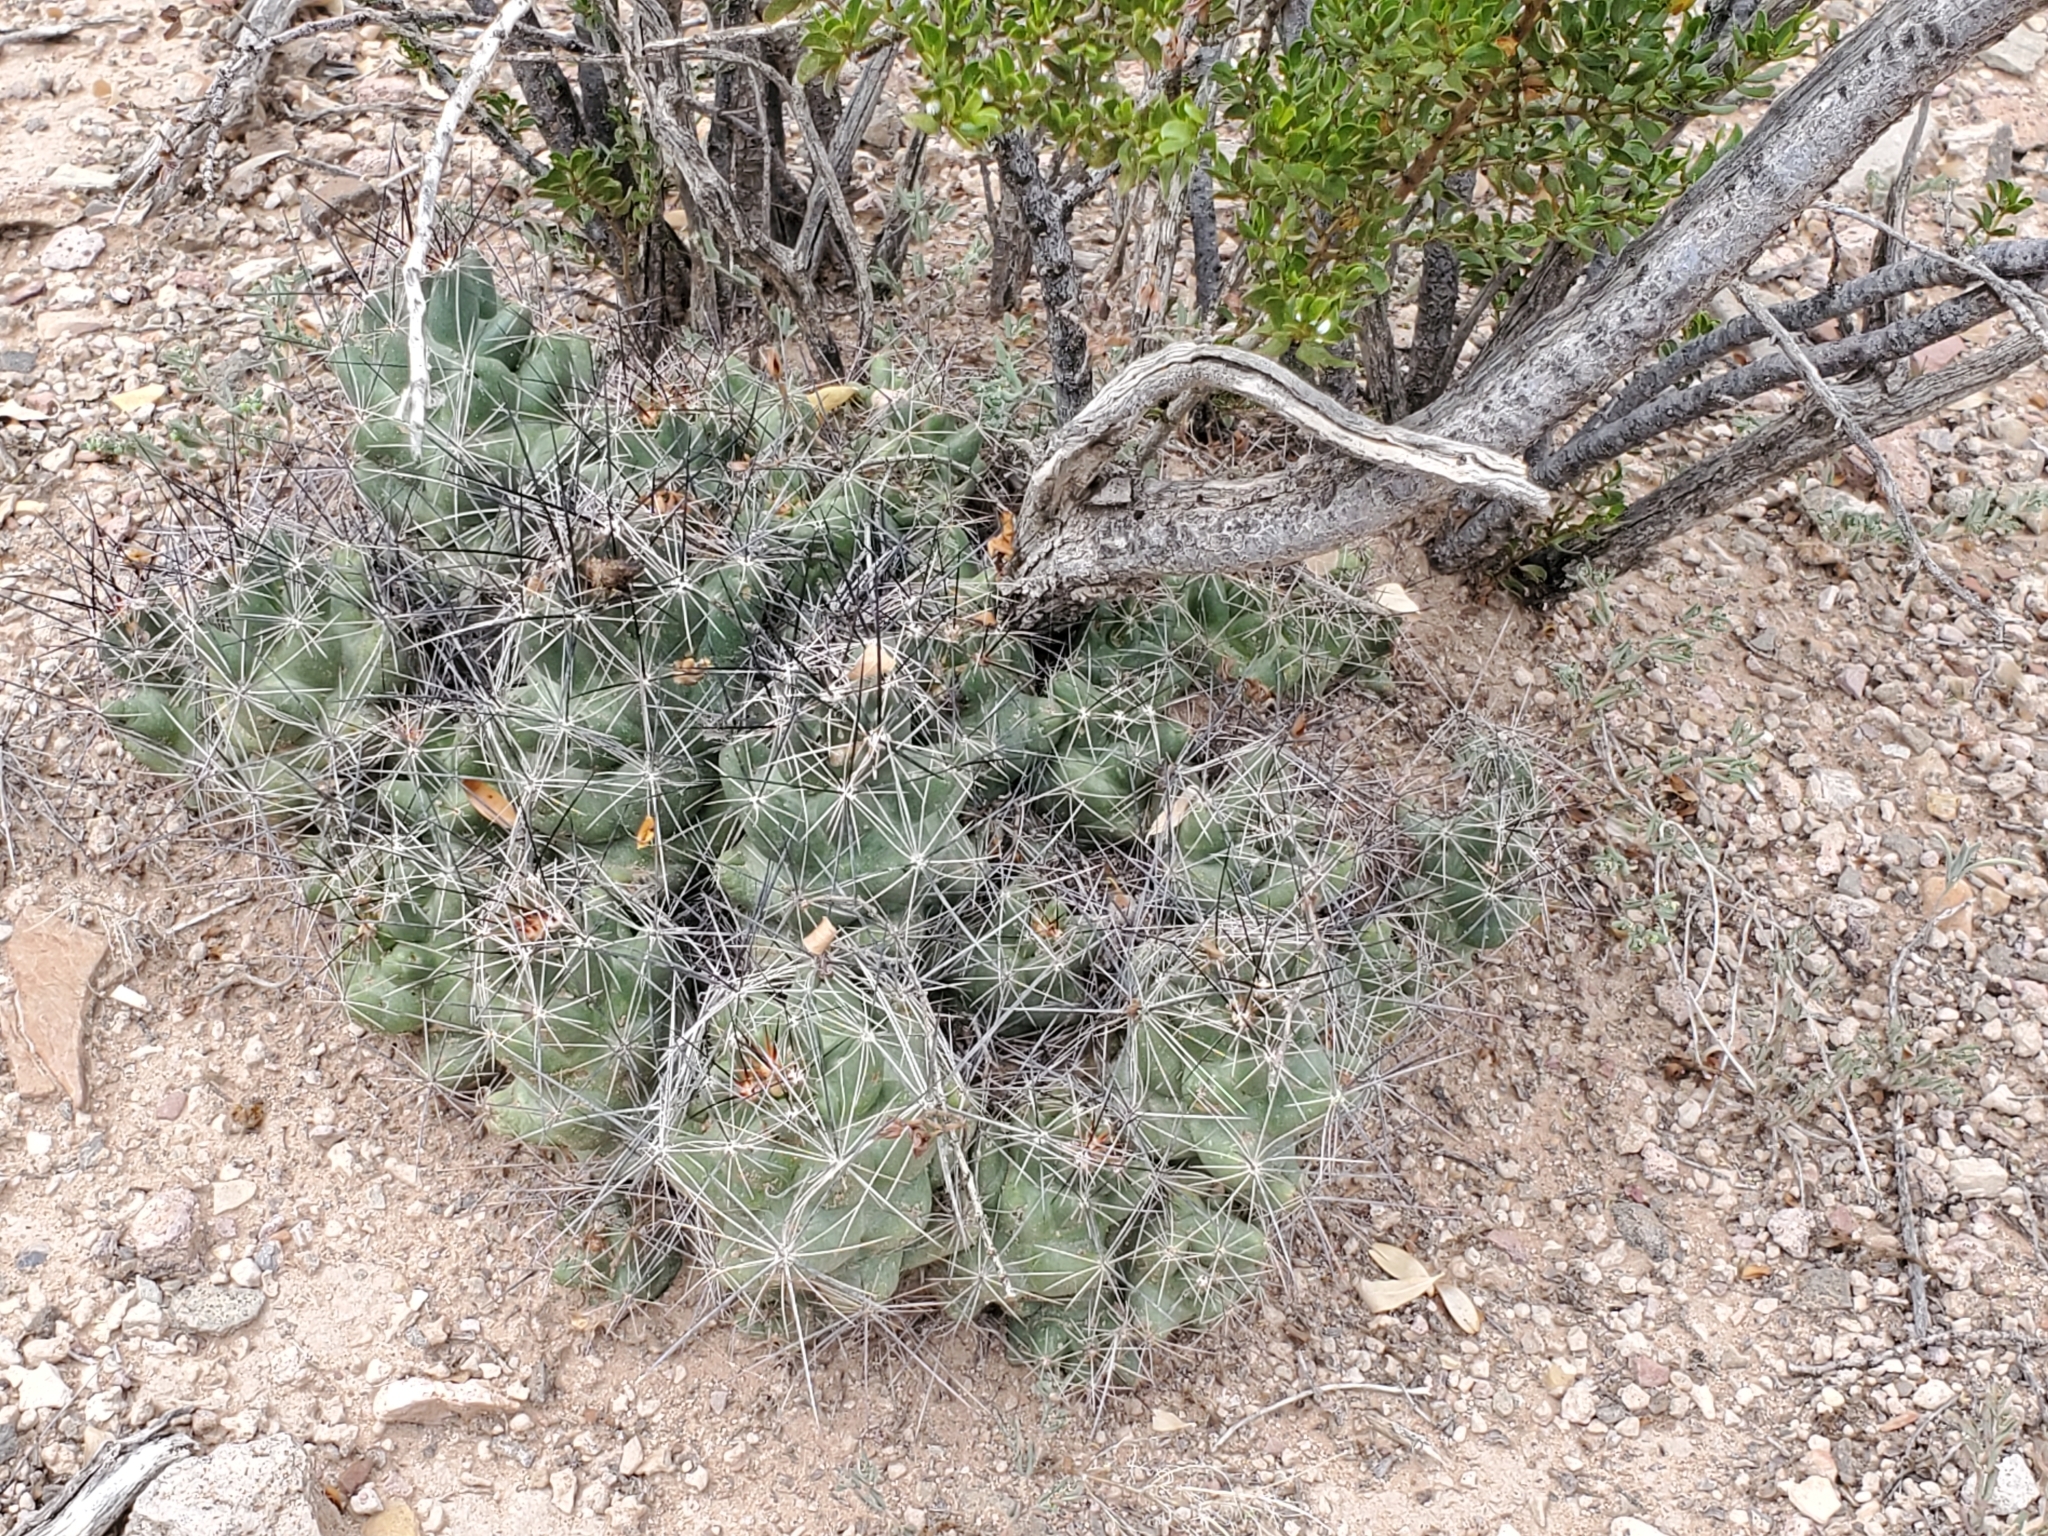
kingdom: Plantae
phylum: Tracheophyta
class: Magnoliopsida
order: Caryophyllales
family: Cactaceae
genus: Coryphantha
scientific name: Coryphantha macromeris
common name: Nipple beehive cactus
